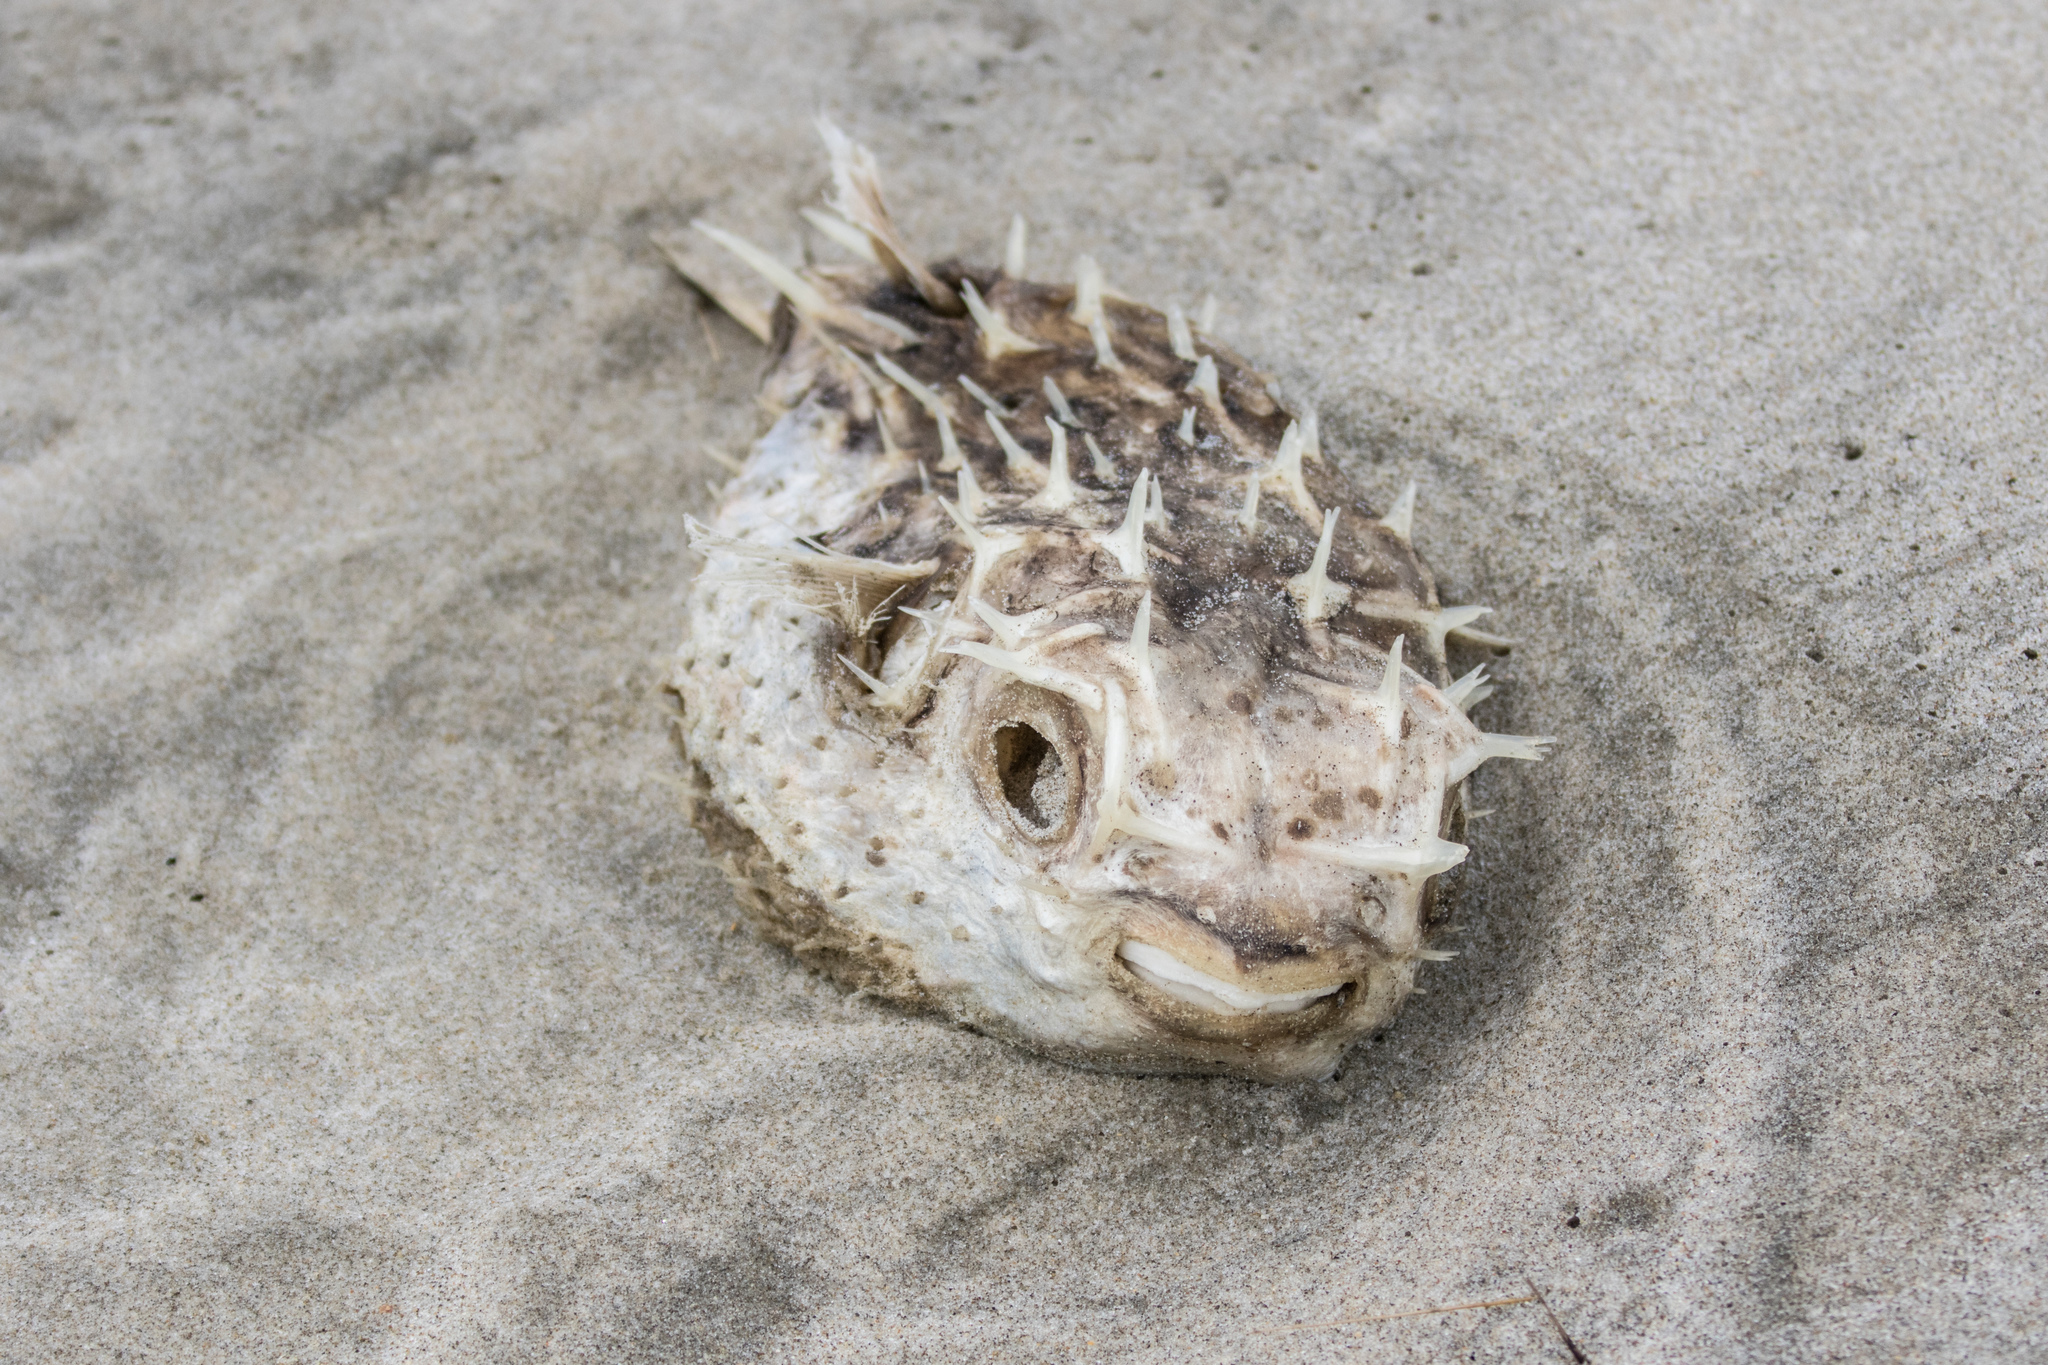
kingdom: Animalia
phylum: Chordata
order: Tetraodontiformes
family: Diodontidae
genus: Allomycterus
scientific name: Allomycterus pilatus
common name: No common name
